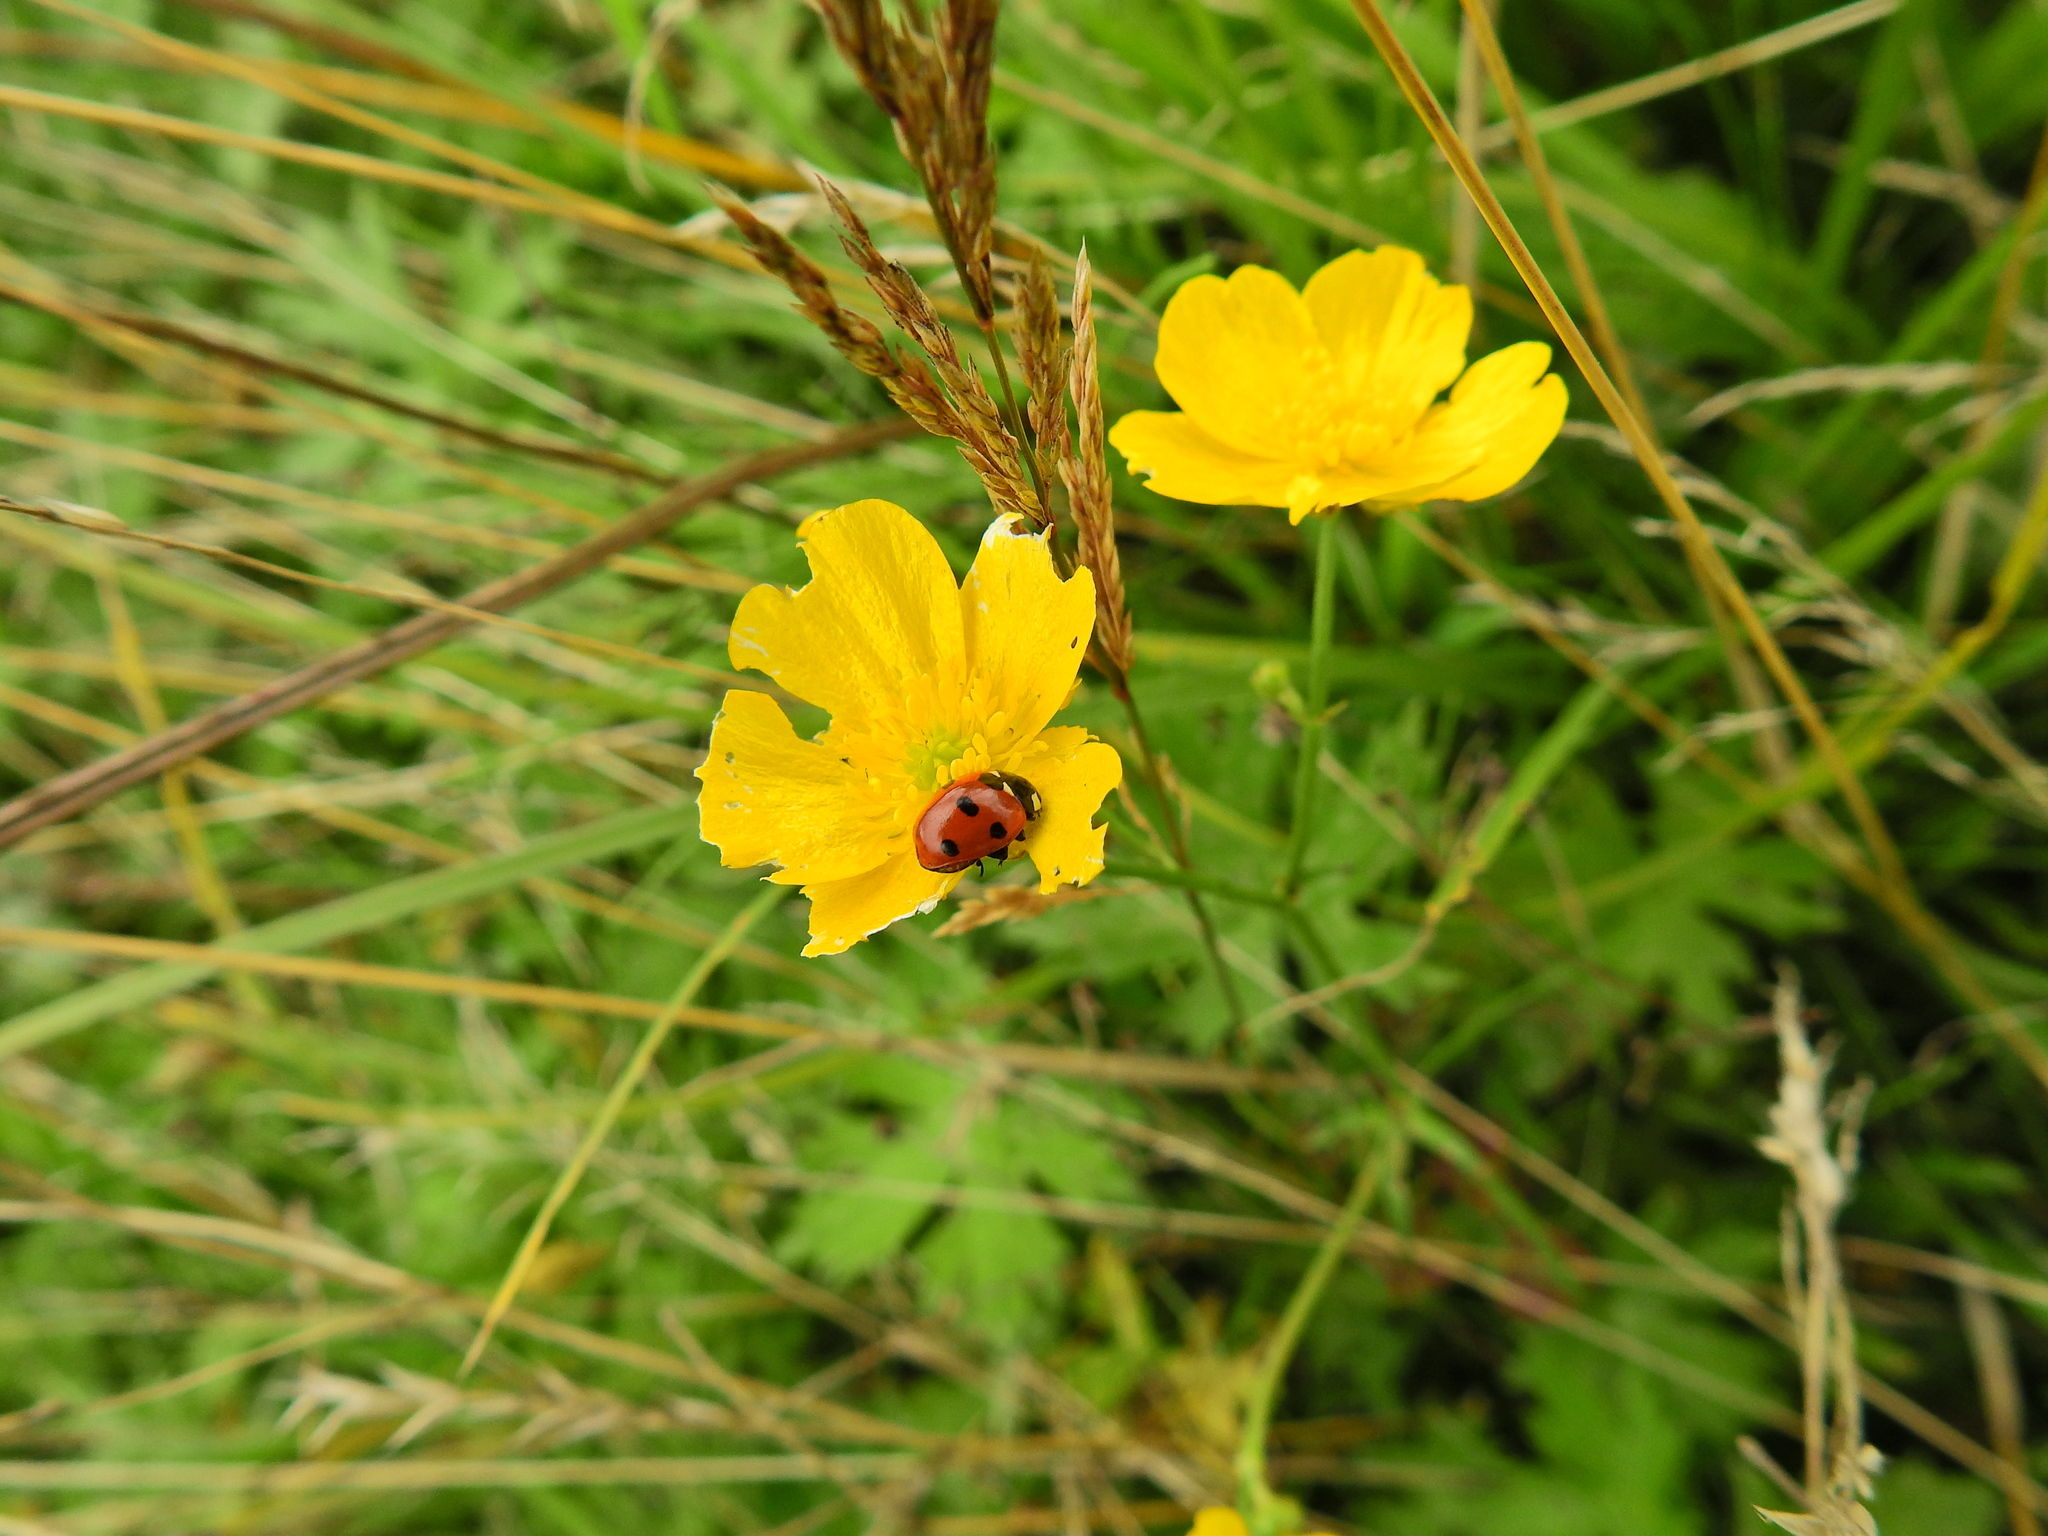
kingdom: Animalia
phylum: Arthropoda
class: Insecta
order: Coleoptera
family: Coccinellidae
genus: Coccinella
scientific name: Coccinella septempunctata
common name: Sevenspotted lady beetle
